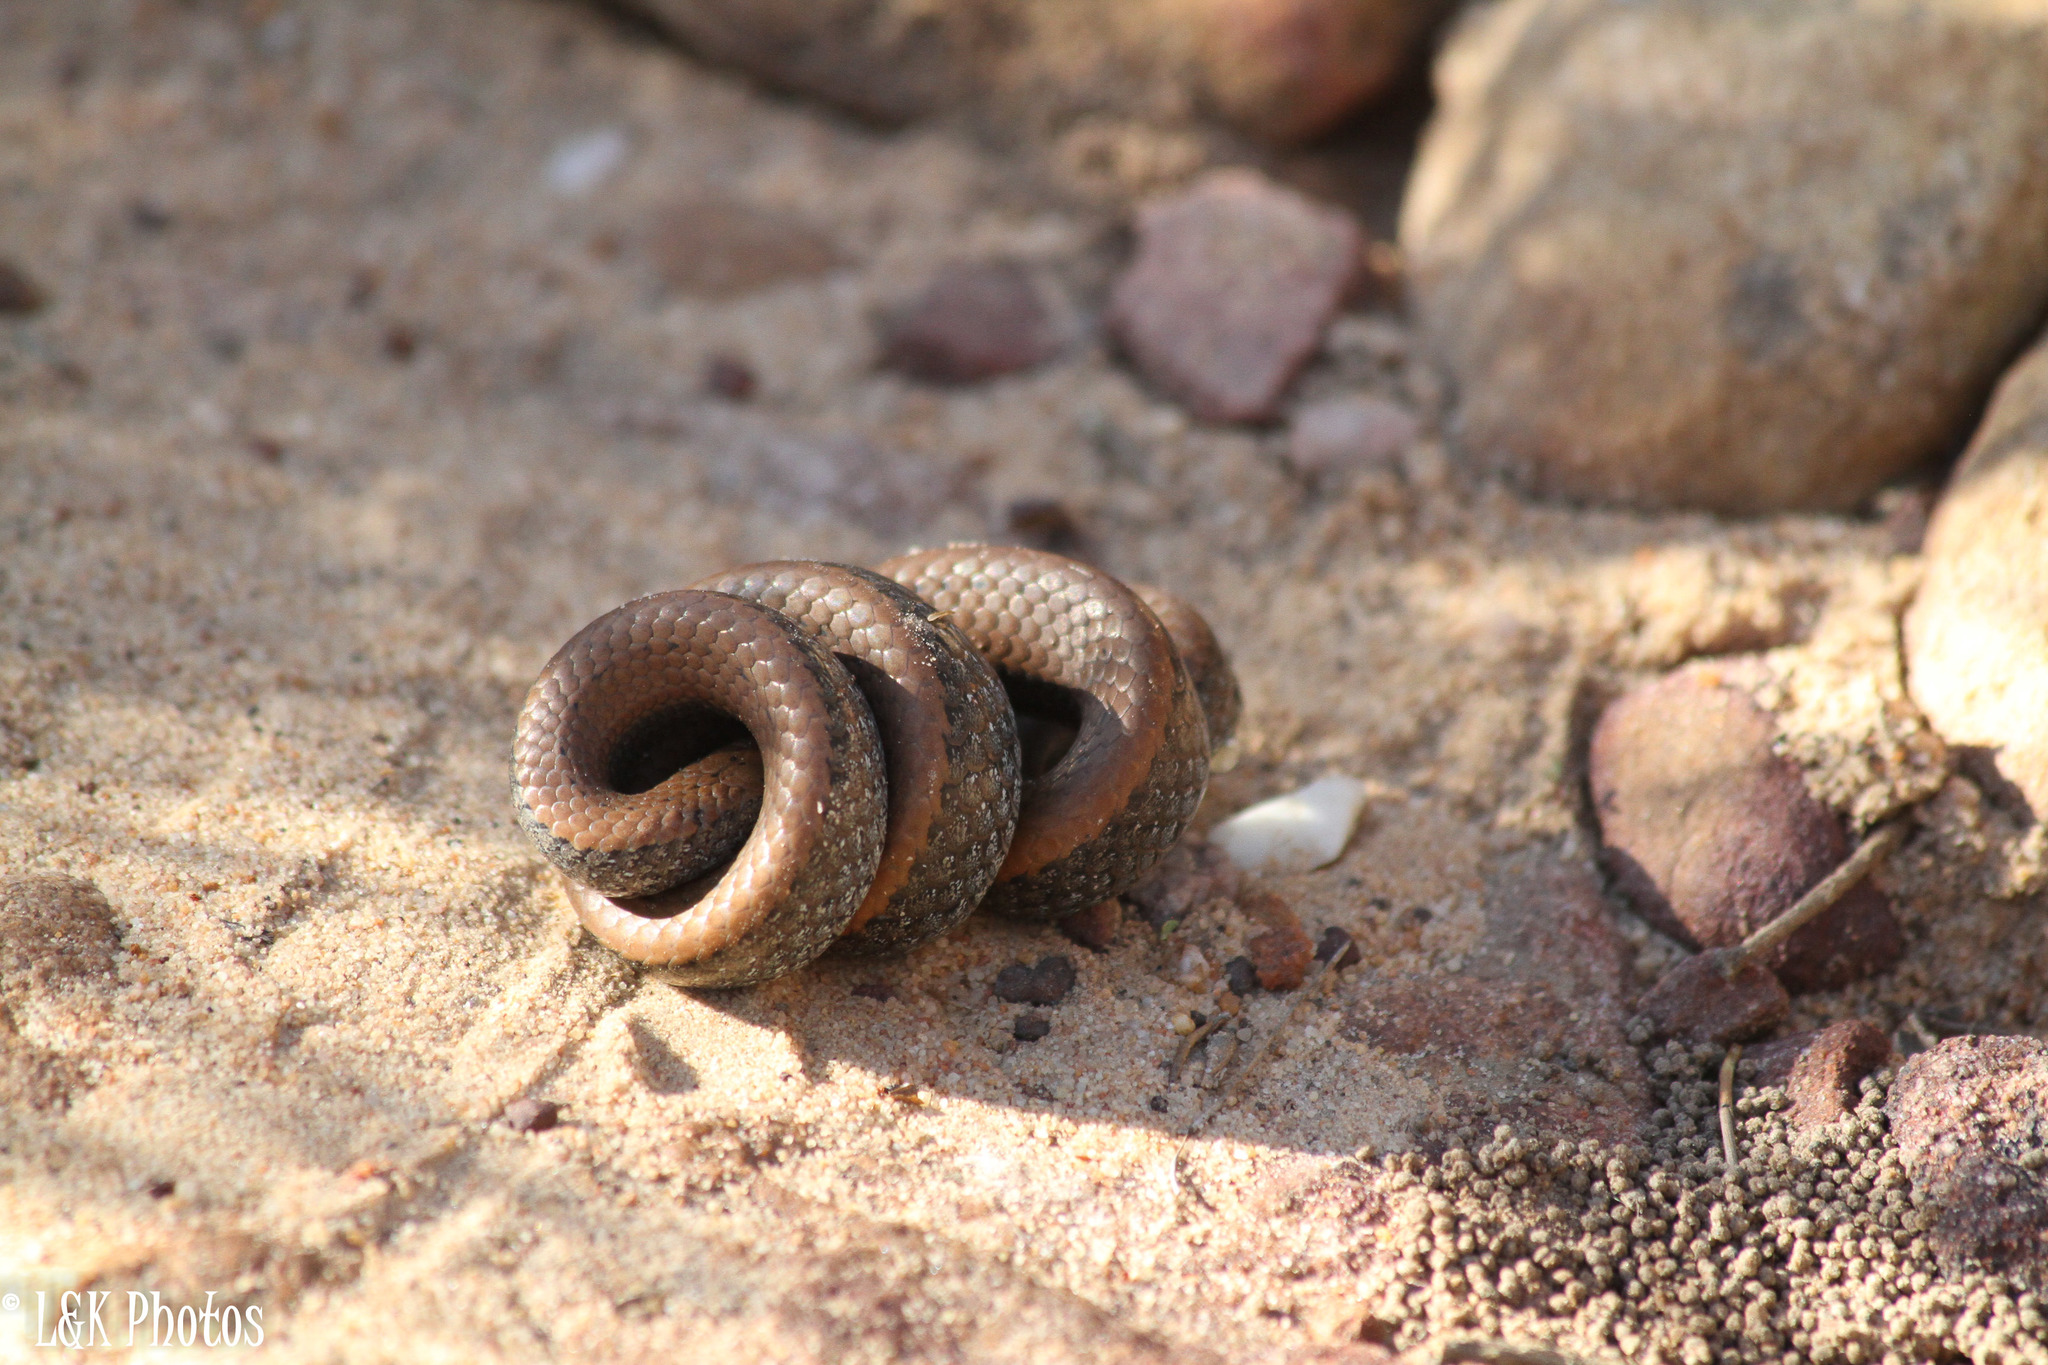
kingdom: Animalia
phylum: Chordata
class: Squamata
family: Pseudoxyrhophiidae
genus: Duberria
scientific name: Duberria lutrix
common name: Common slug eater
